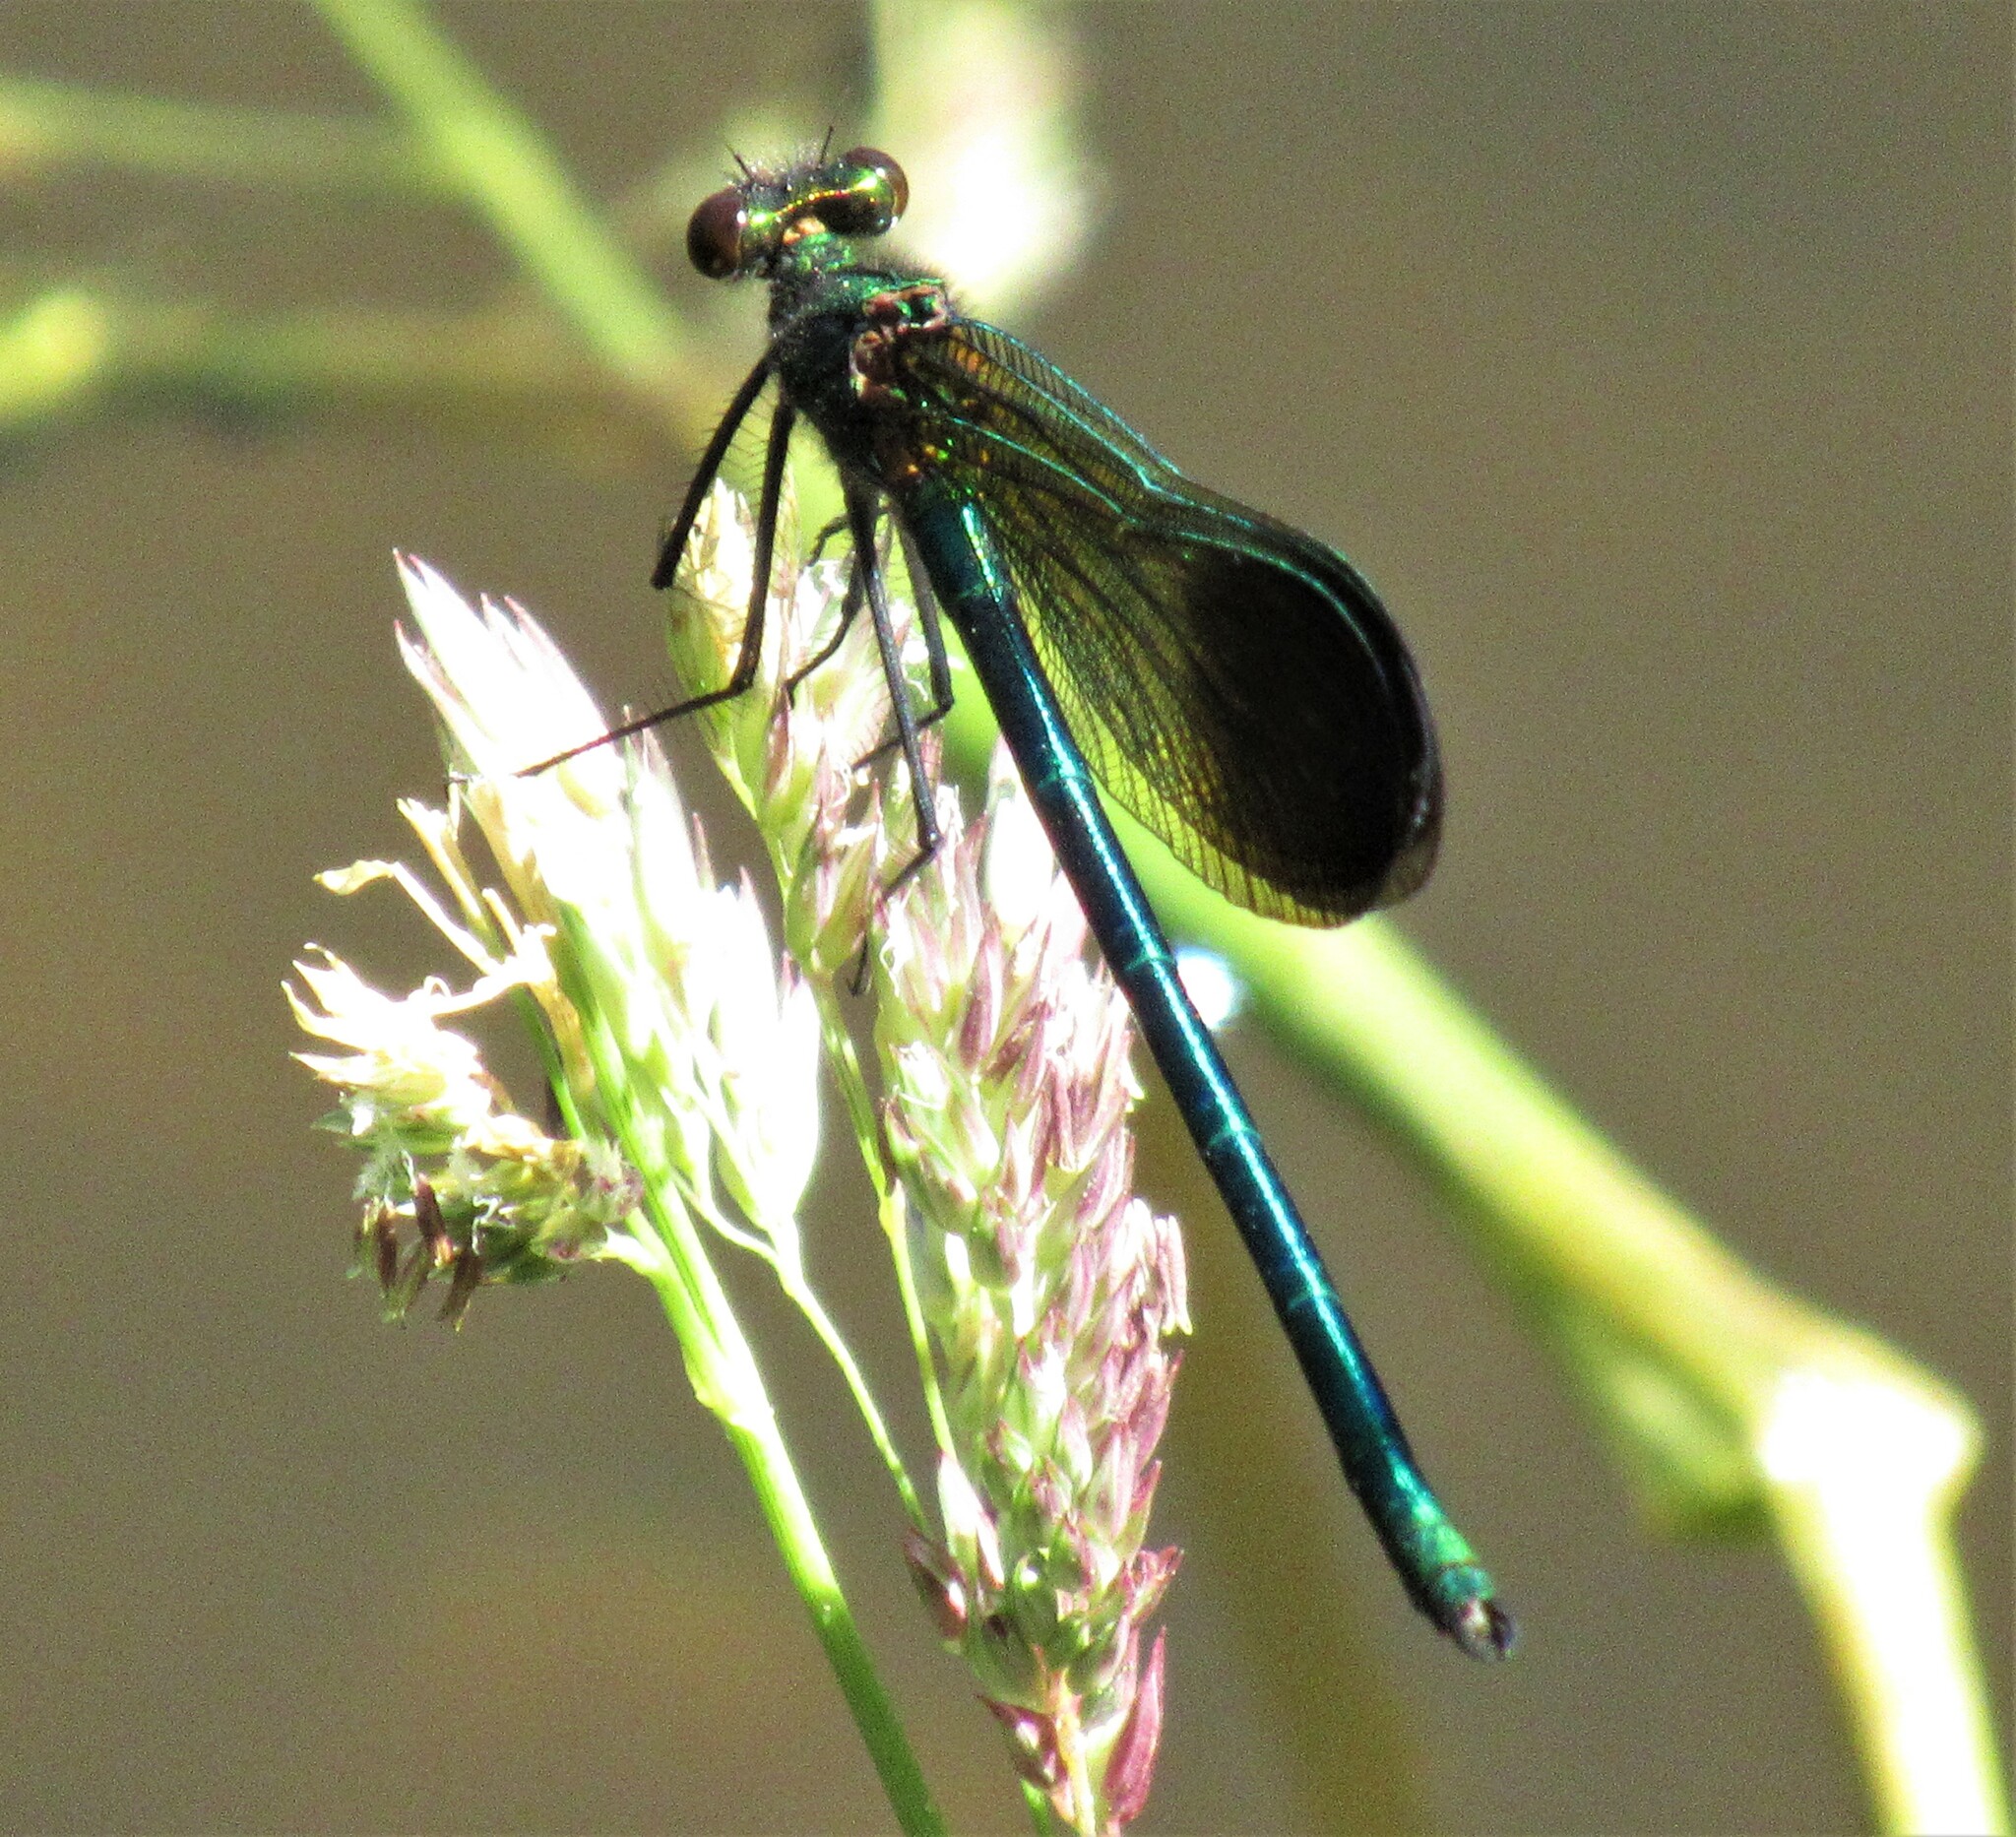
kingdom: Animalia
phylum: Arthropoda
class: Insecta
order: Odonata
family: Calopterygidae
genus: Calopteryx
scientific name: Calopteryx aequabilis
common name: River jewelwing
